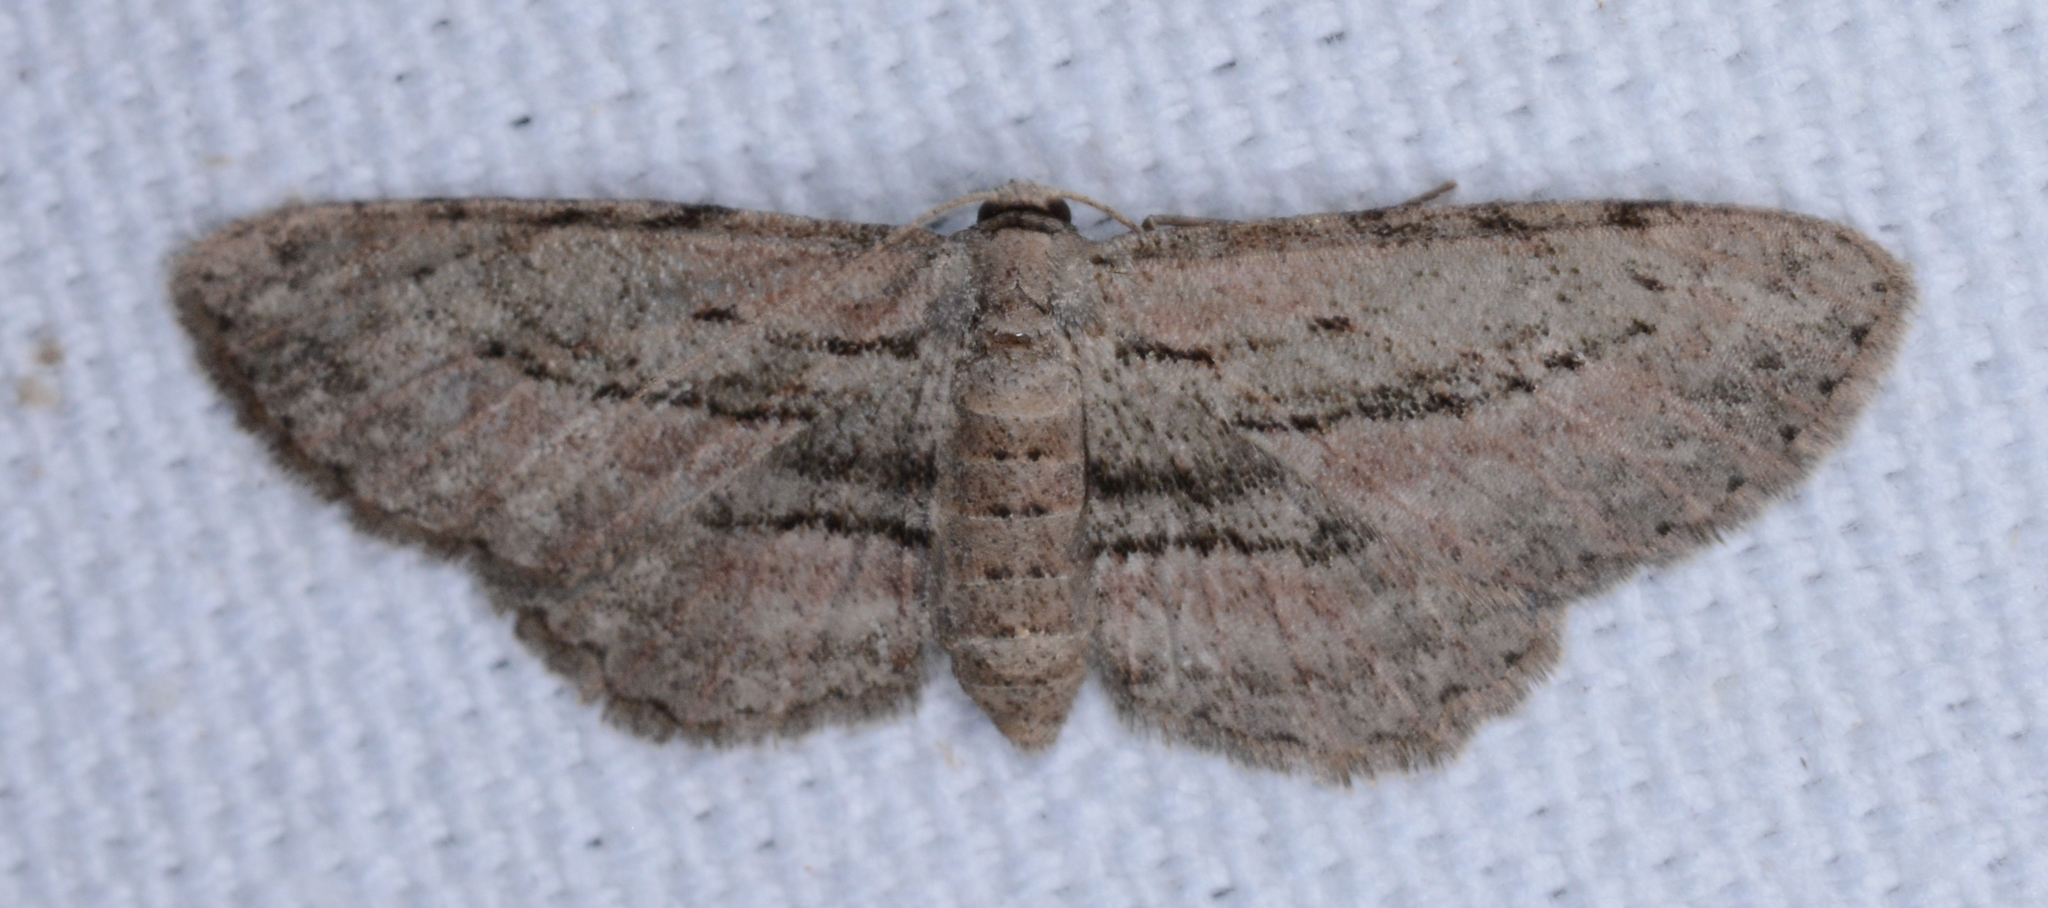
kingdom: Animalia
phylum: Arthropoda
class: Insecta
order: Lepidoptera
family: Geometridae
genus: Glena
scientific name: Glena plumosaria
